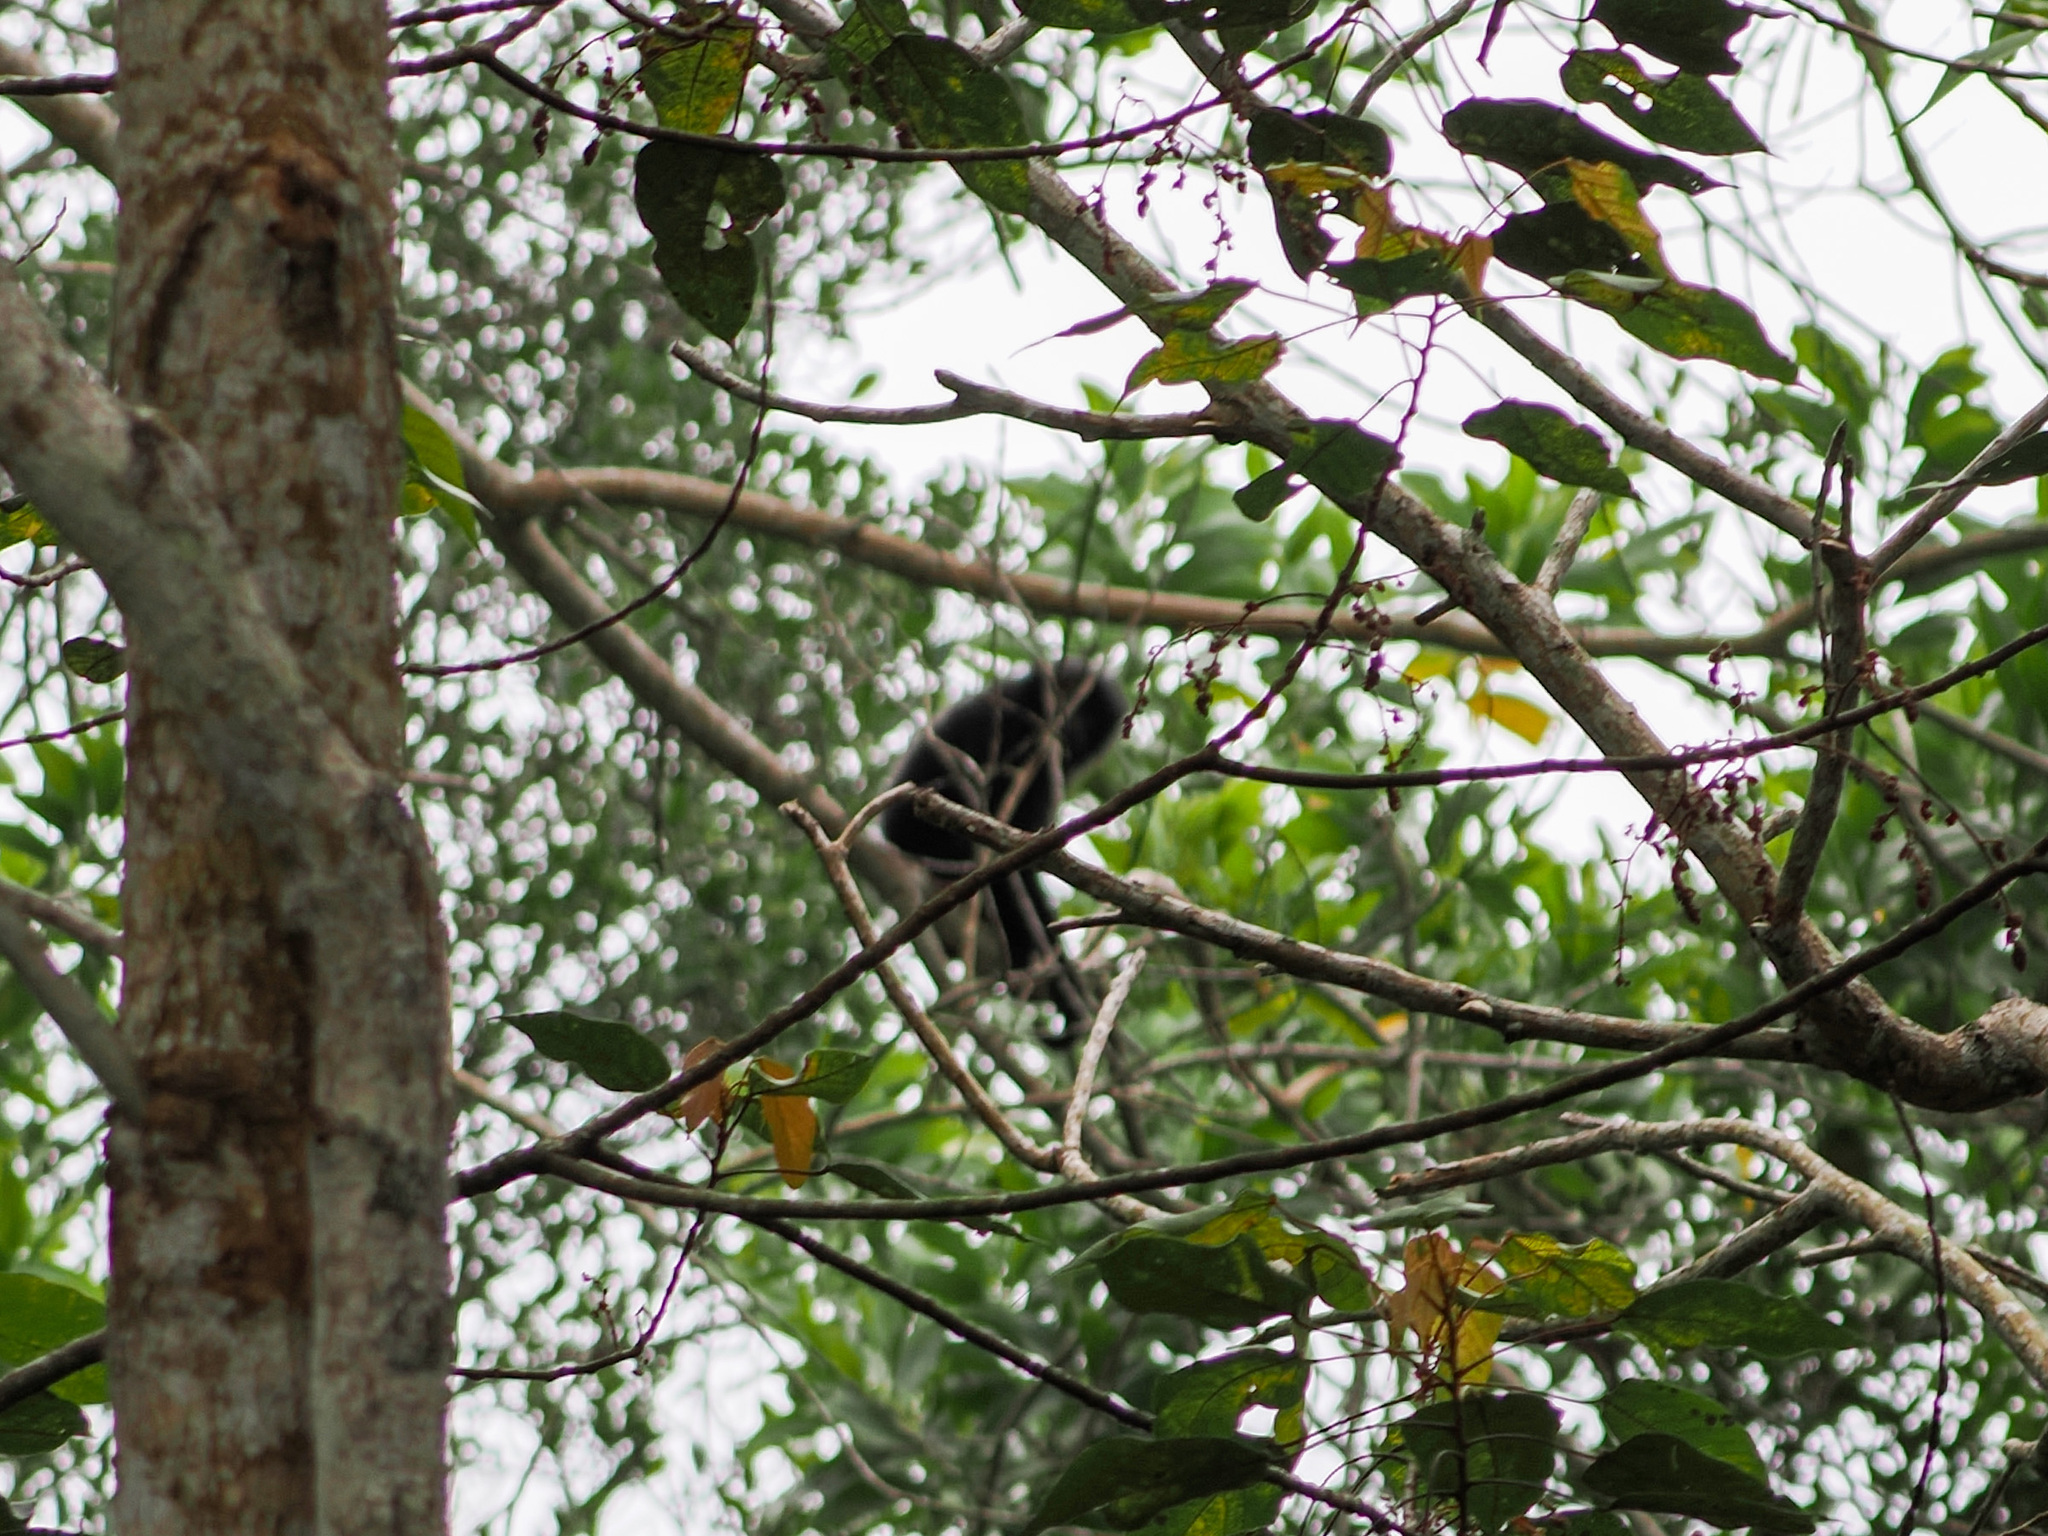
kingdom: Animalia
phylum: Chordata
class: Mammalia
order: Primates
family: Hylobatidae
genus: Symphalangus
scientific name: Symphalangus syndactylus
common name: Siamang
